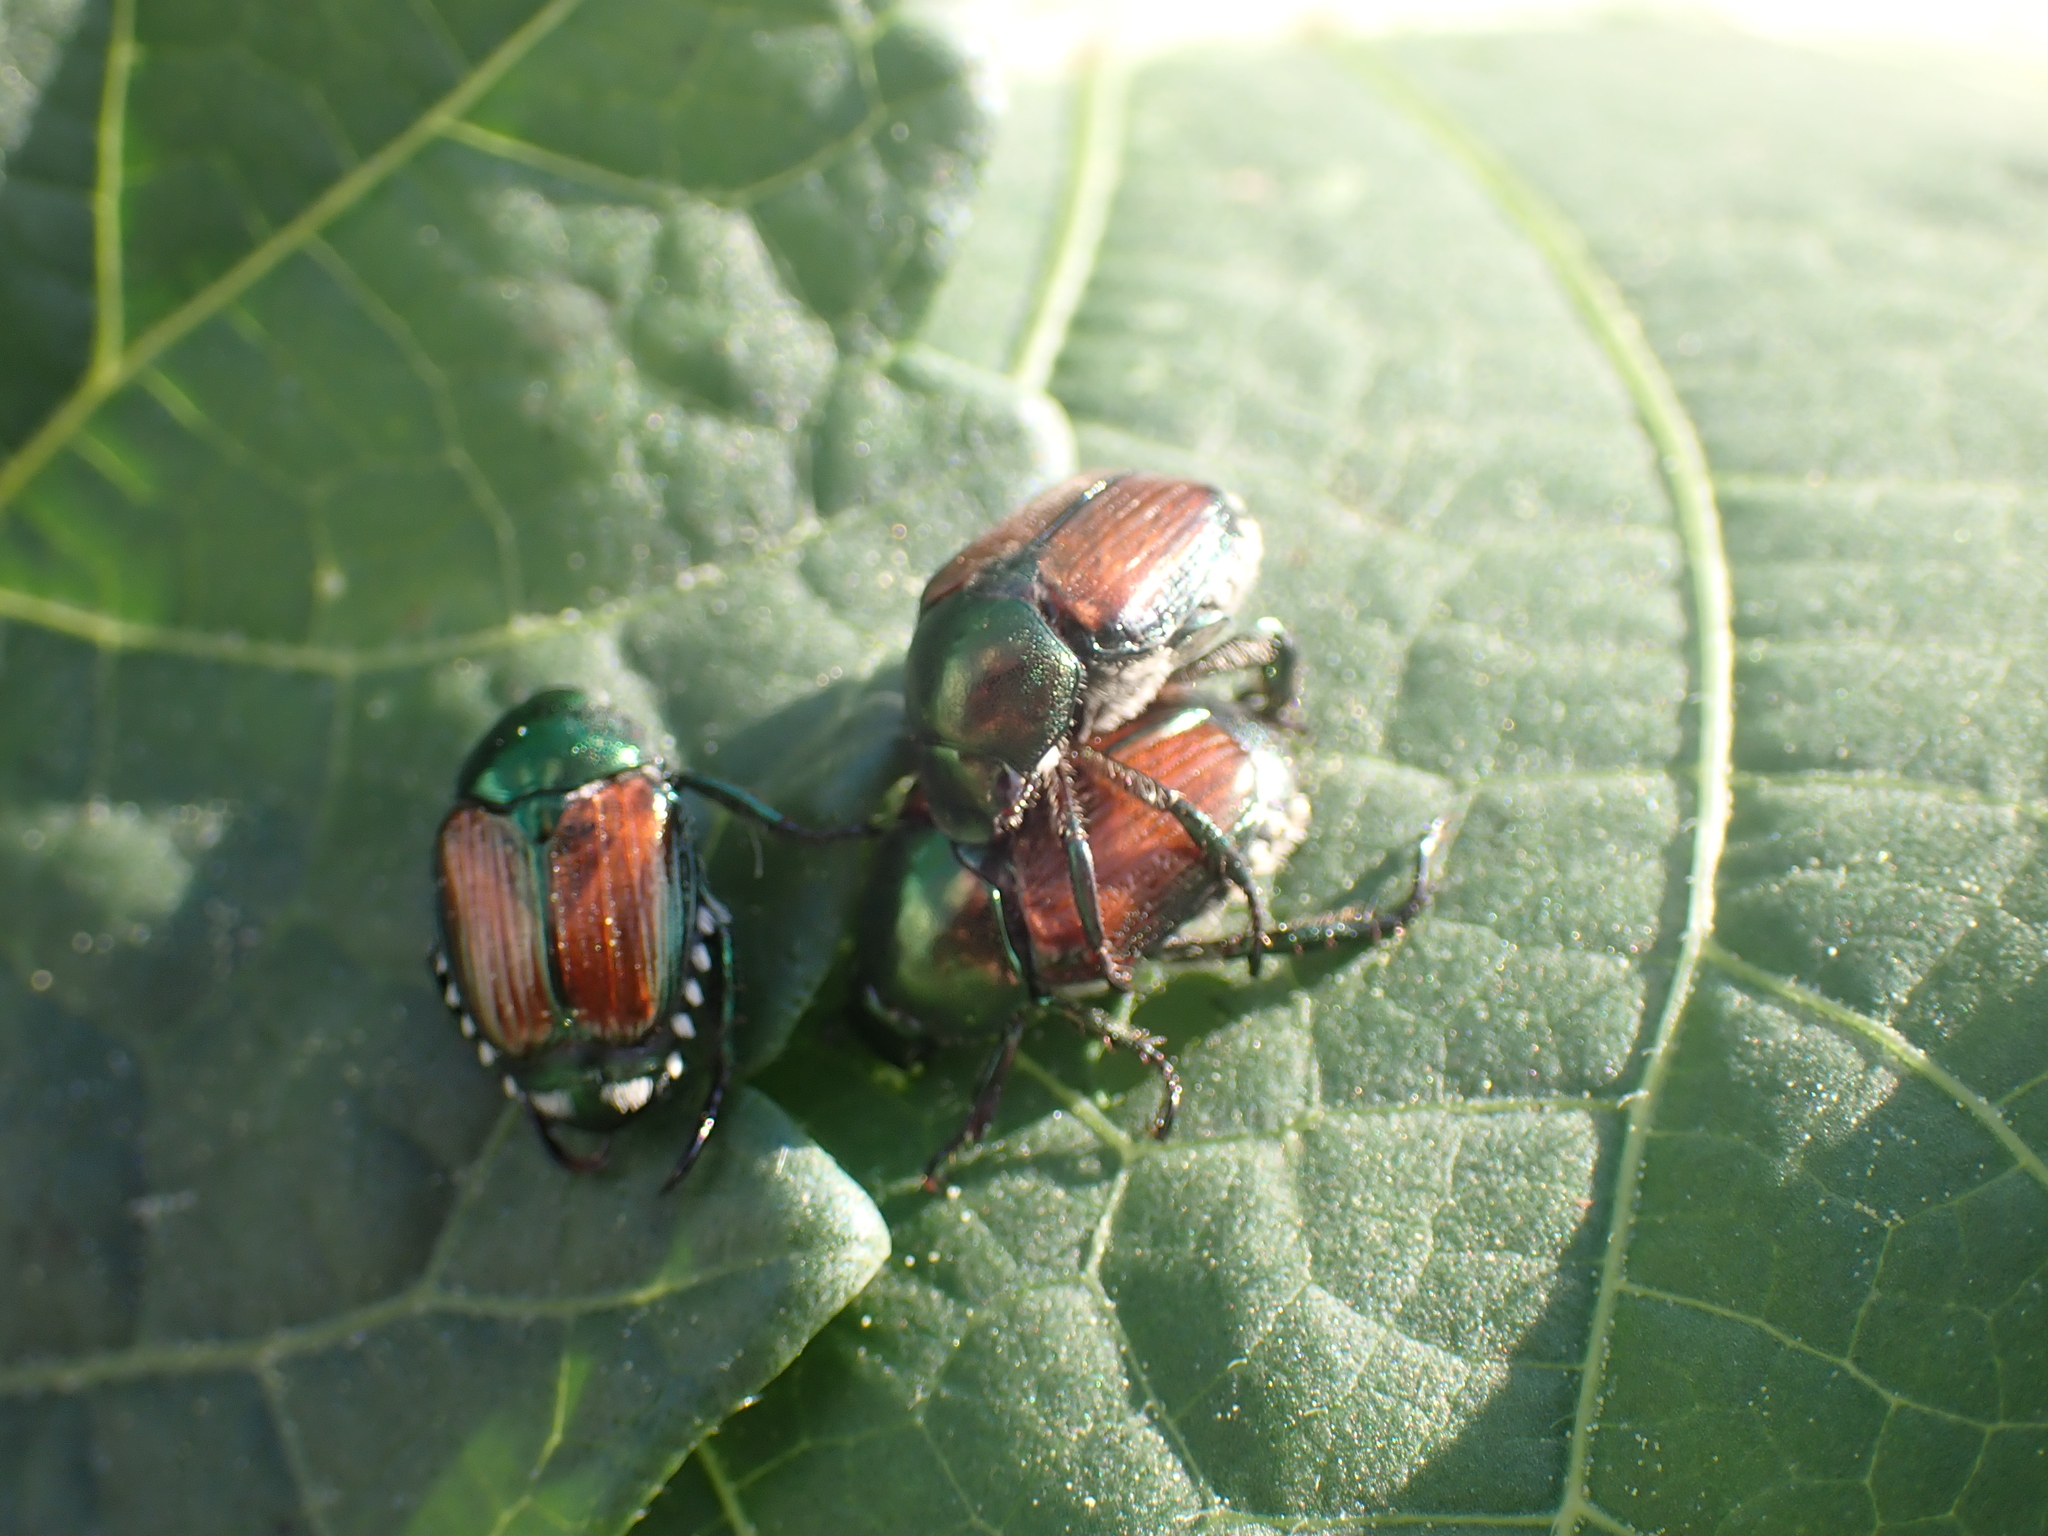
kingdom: Animalia
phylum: Arthropoda
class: Insecta
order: Coleoptera
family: Scarabaeidae
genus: Popillia
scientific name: Popillia japonica
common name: Japanese beetle
